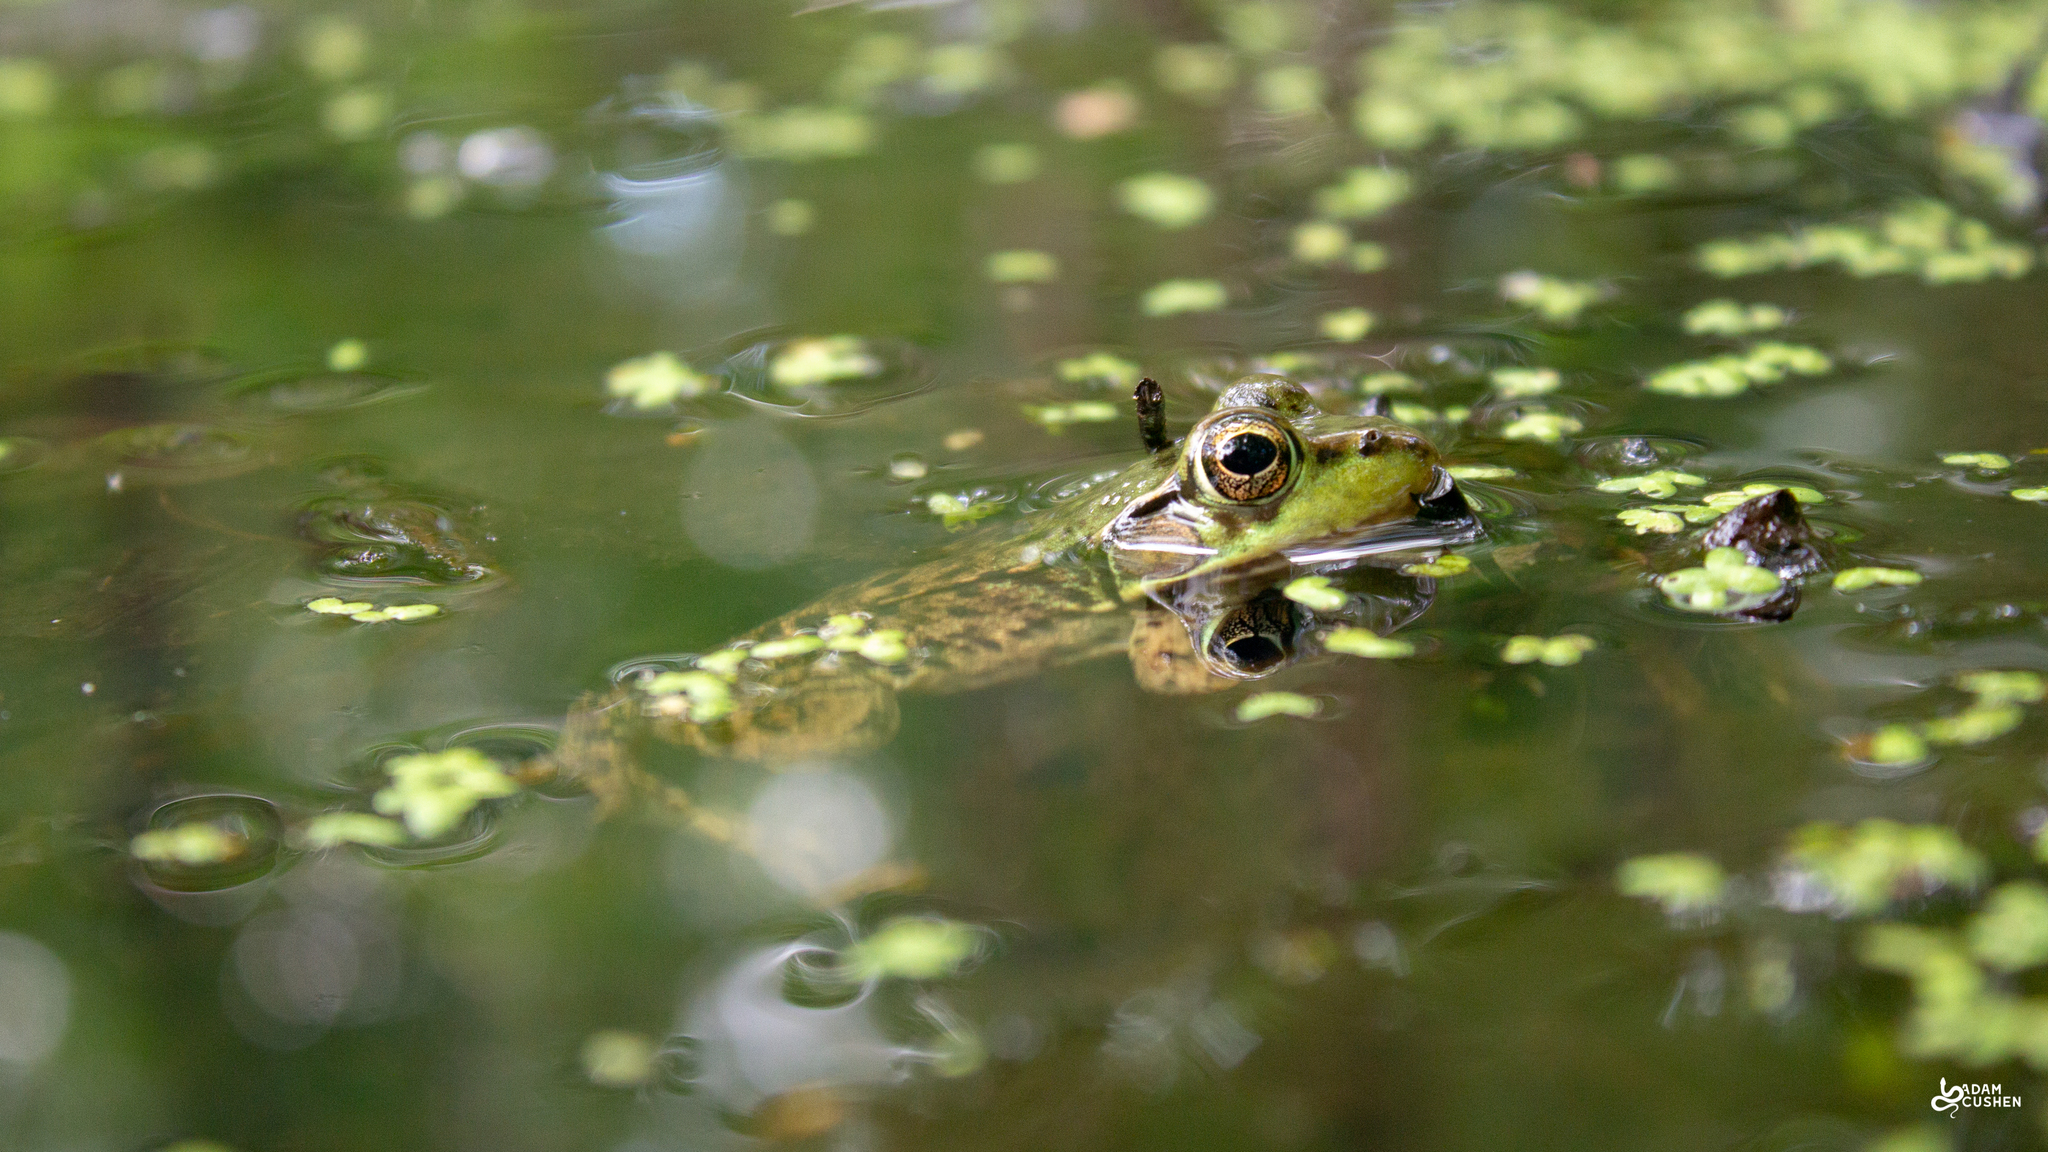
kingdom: Animalia
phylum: Chordata
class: Amphibia
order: Anura
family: Ranidae
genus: Lithobates
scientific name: Lithobates clamitans
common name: Green frog
